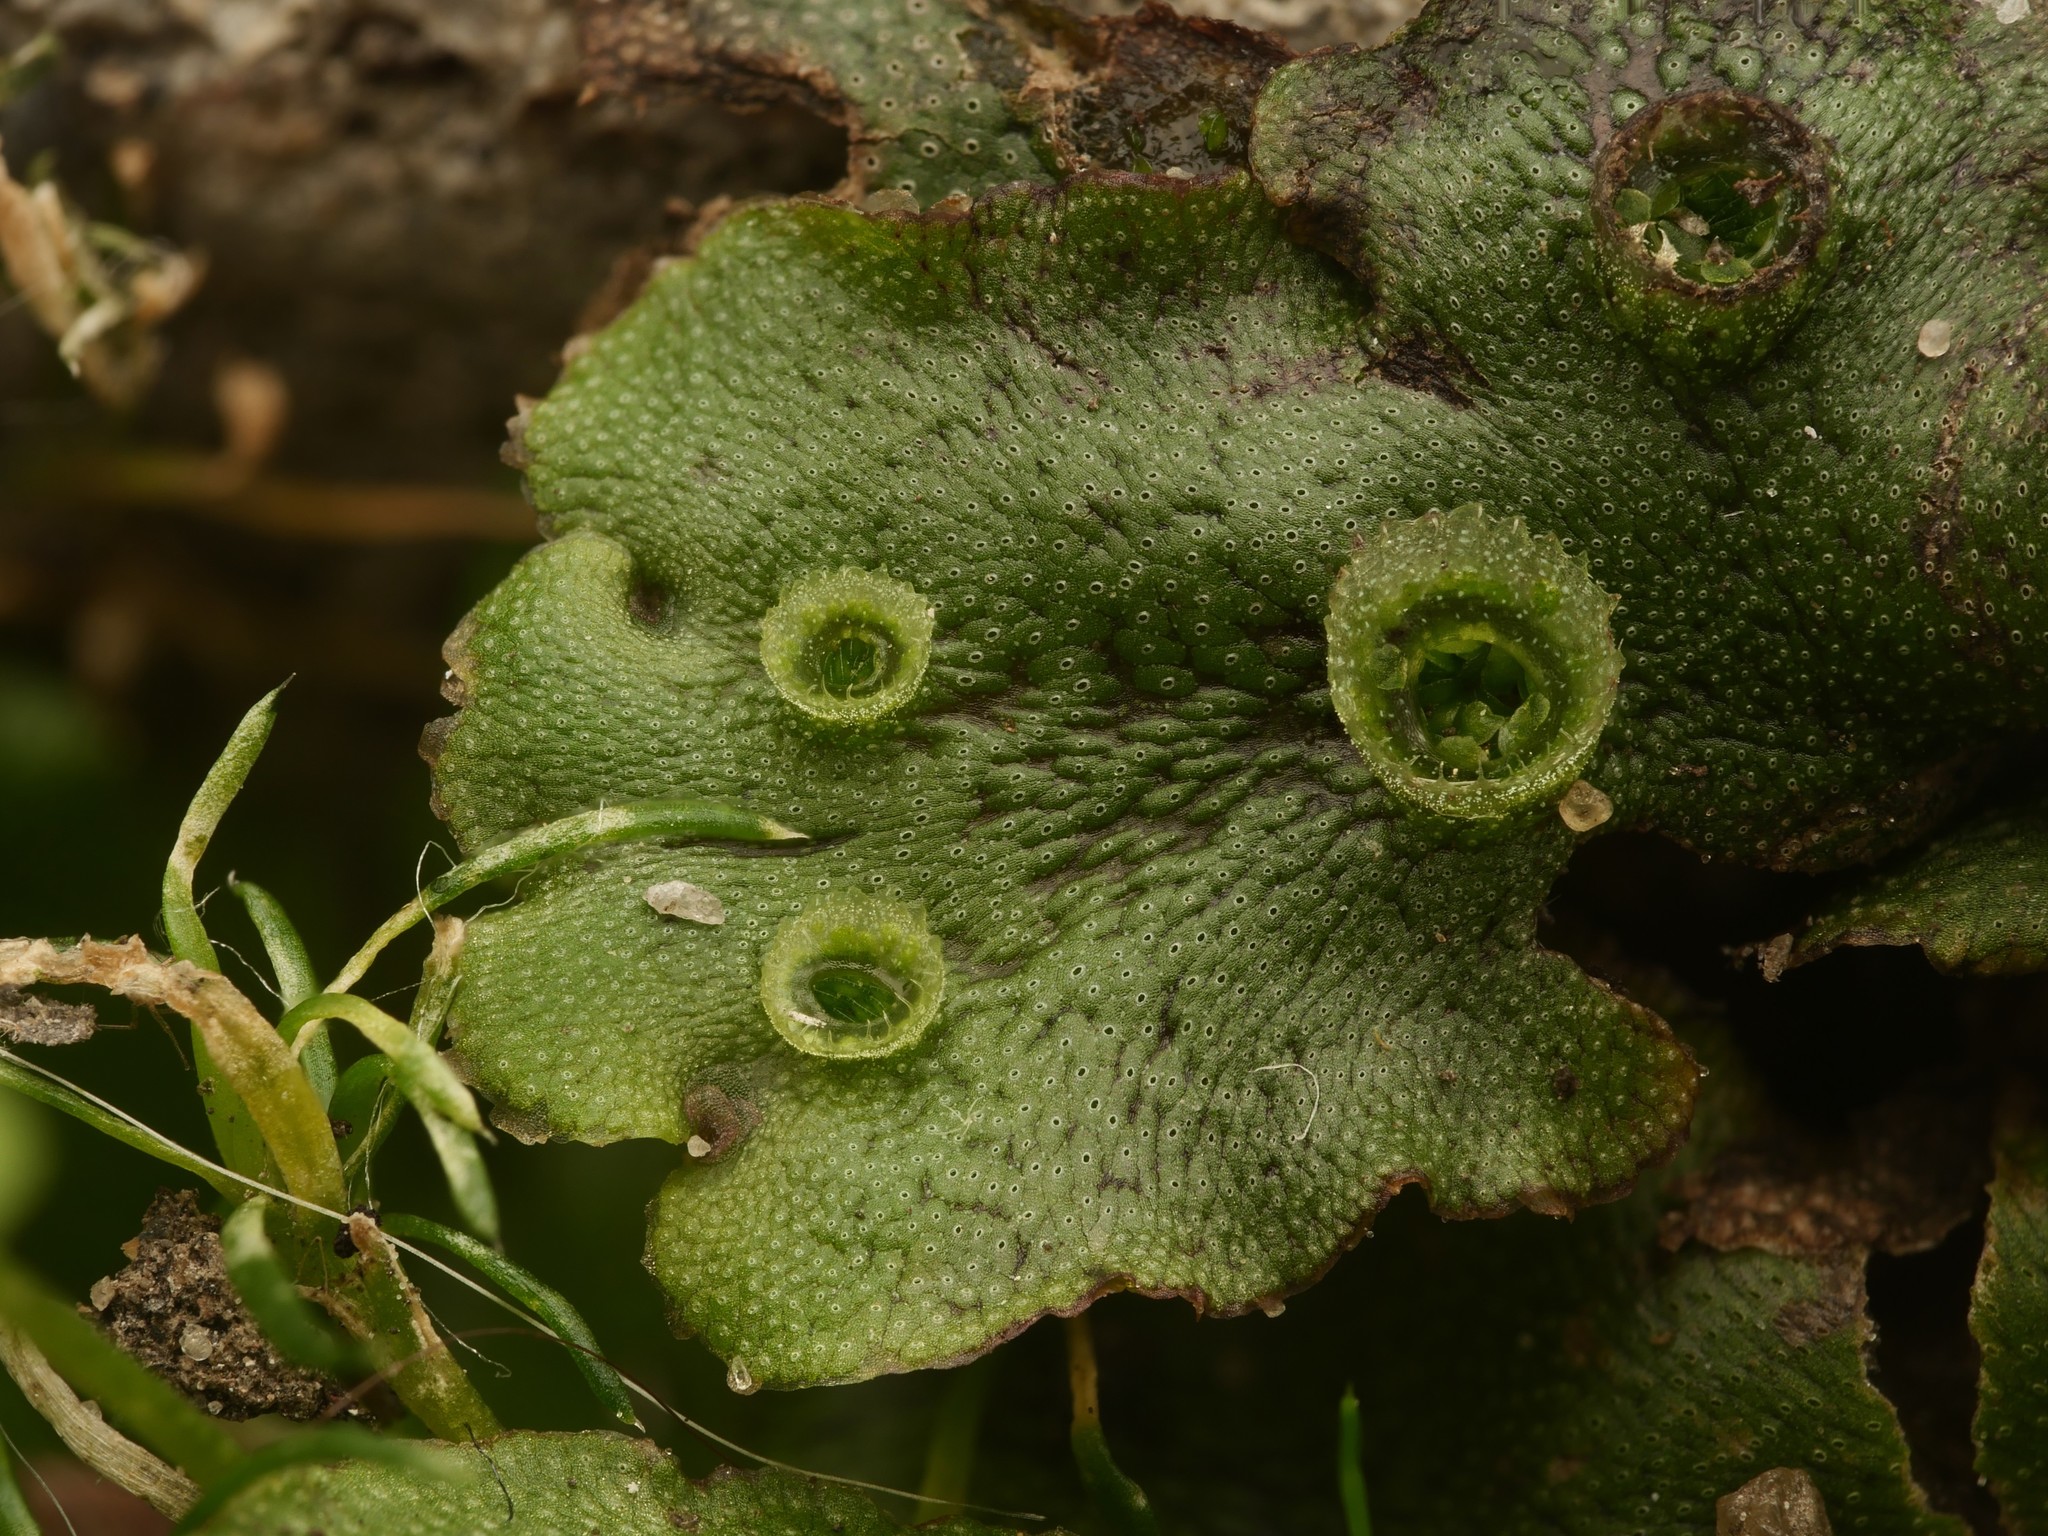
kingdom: Plantae
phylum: Marchantiophyta
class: Marchantiopsida
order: Marchantiales
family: Marchantiaceae
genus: Marchantia
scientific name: Marchantia polymorpha
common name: Common liverwort
